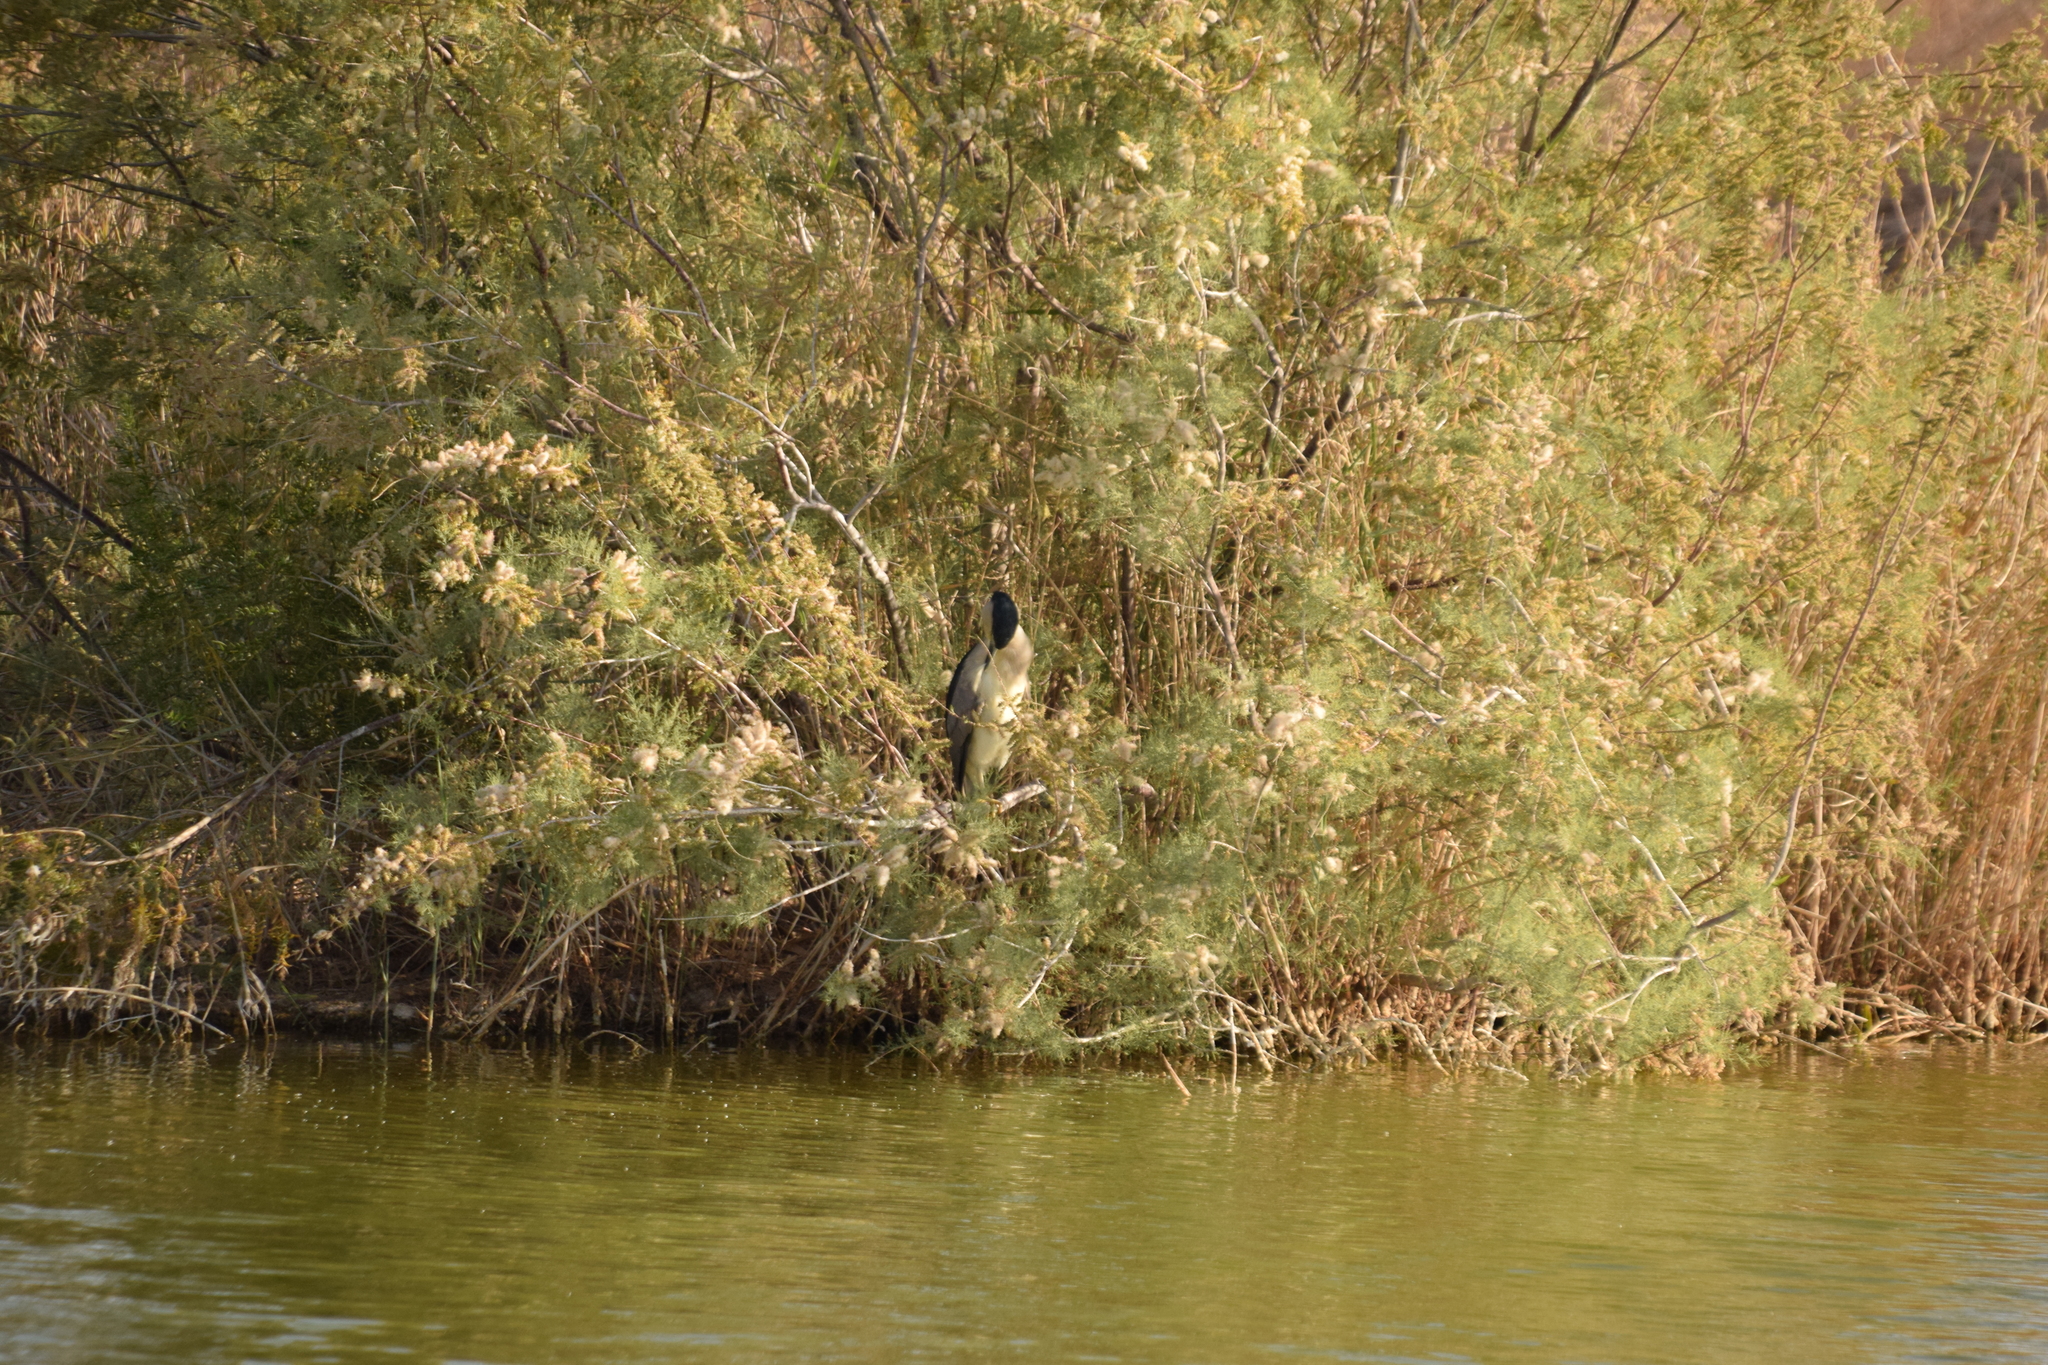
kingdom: Animalia
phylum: Chordata
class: Aves
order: Pelecaniformes
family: Ardeidae
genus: Nycticorax
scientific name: Nycticorax nycticorax
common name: Black-crowned night heron
